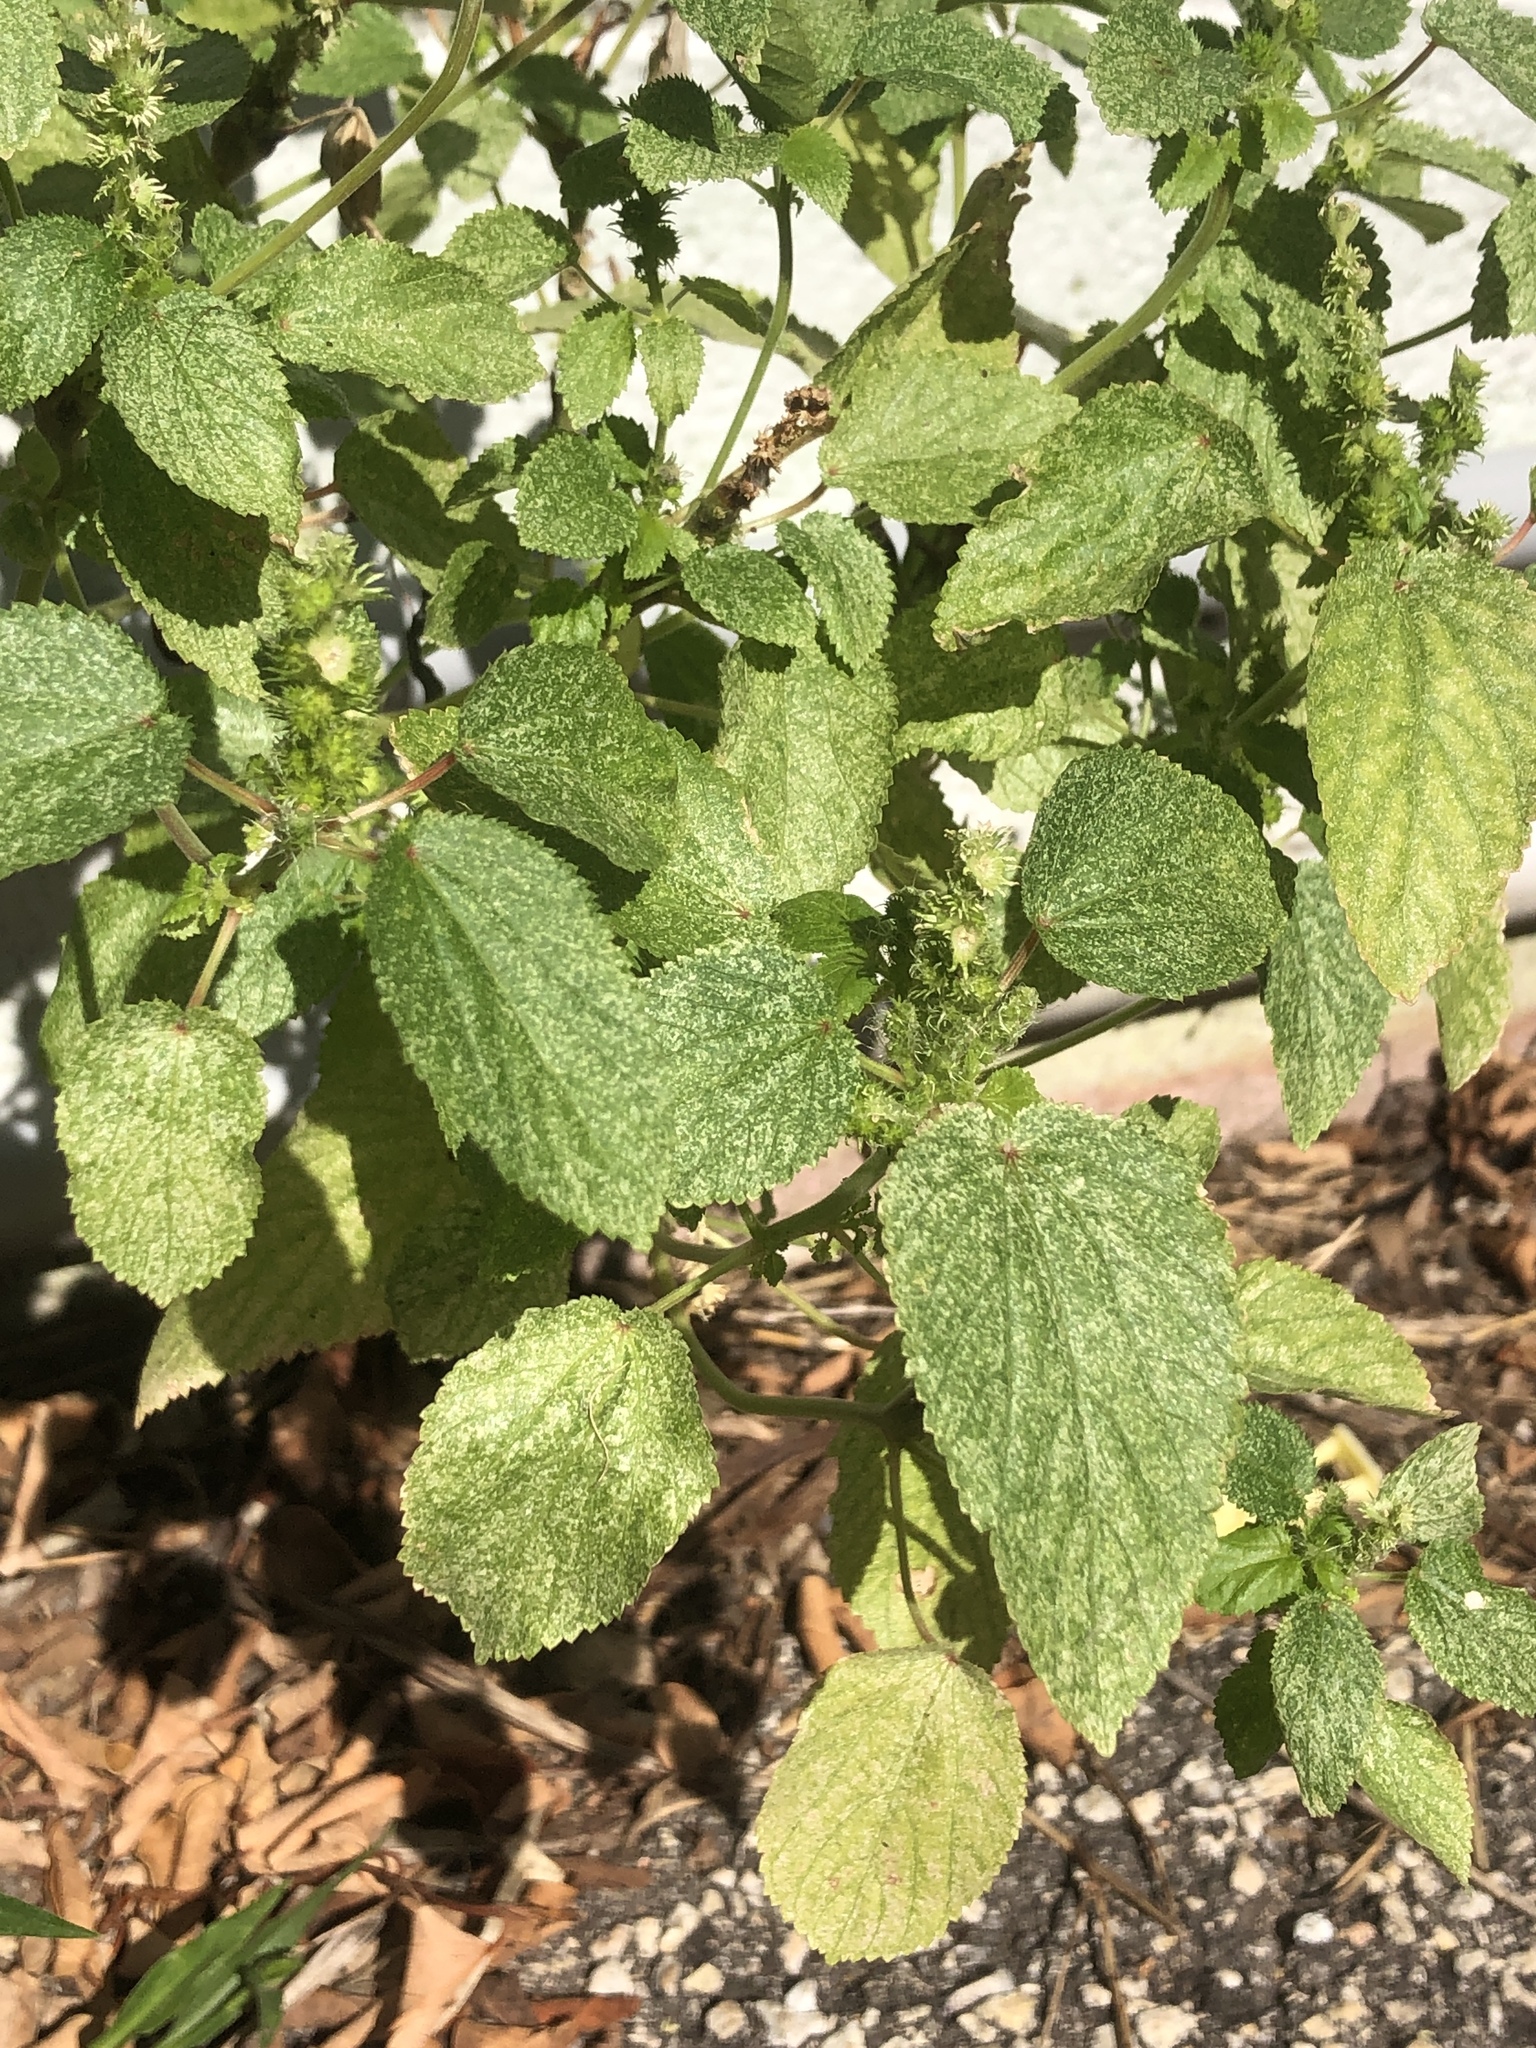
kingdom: Plantae
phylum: Tracheophyta
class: Magnoliopsida
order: Malpighiales
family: Euphorbiaceae
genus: Acalypha
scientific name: Acalypha ostryifolia
